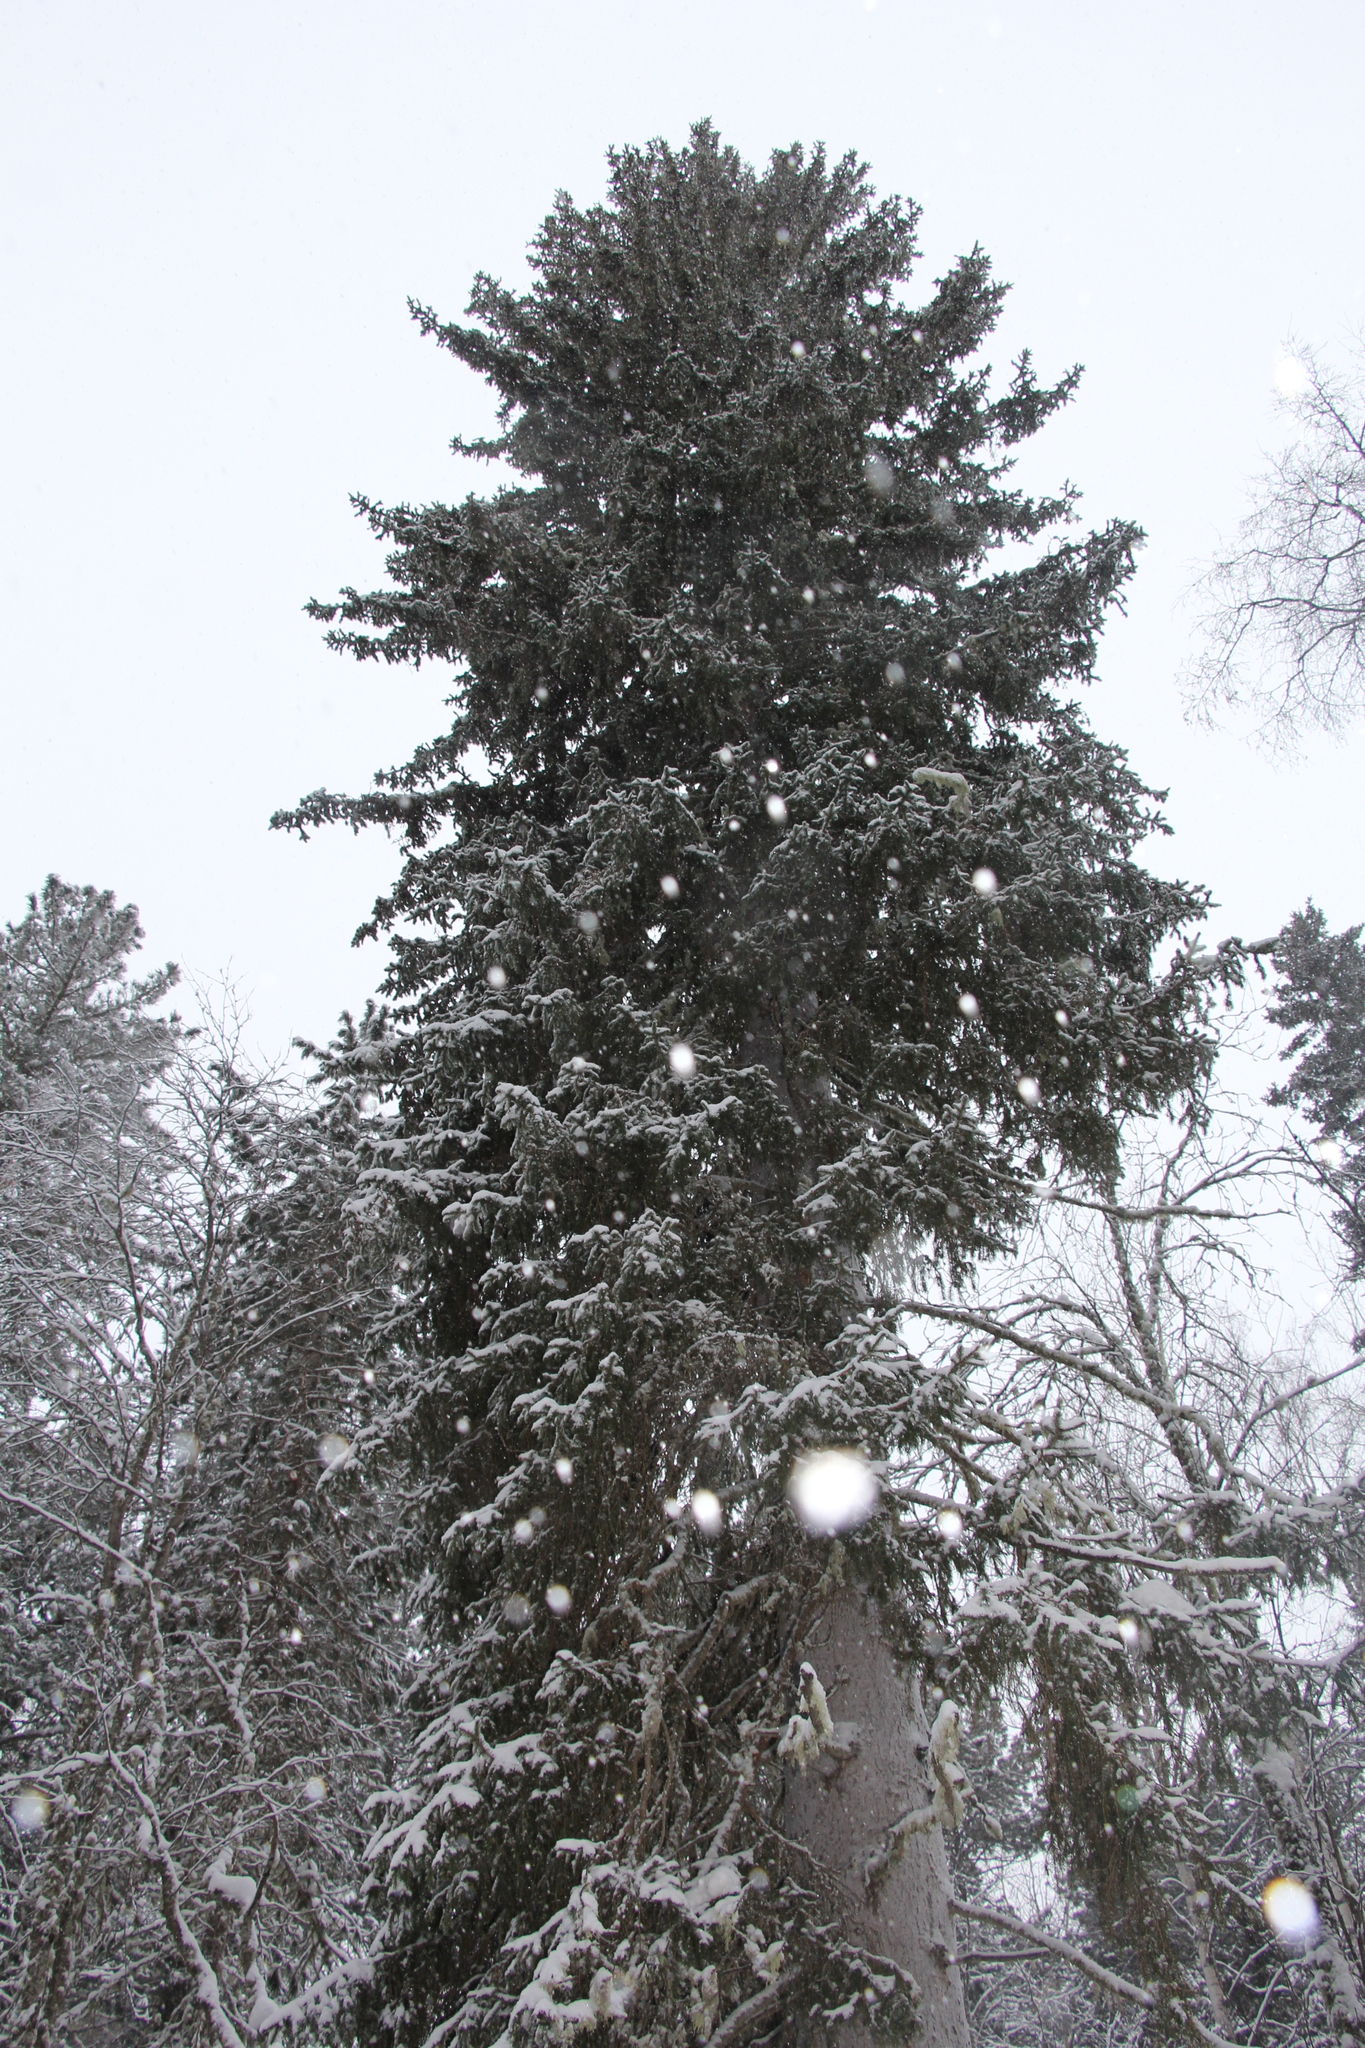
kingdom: Plantae
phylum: Tracheophyta
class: Pinopsida
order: Pinales
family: Pinaceae
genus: Picea
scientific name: Picea obovata
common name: Siberian spruce
